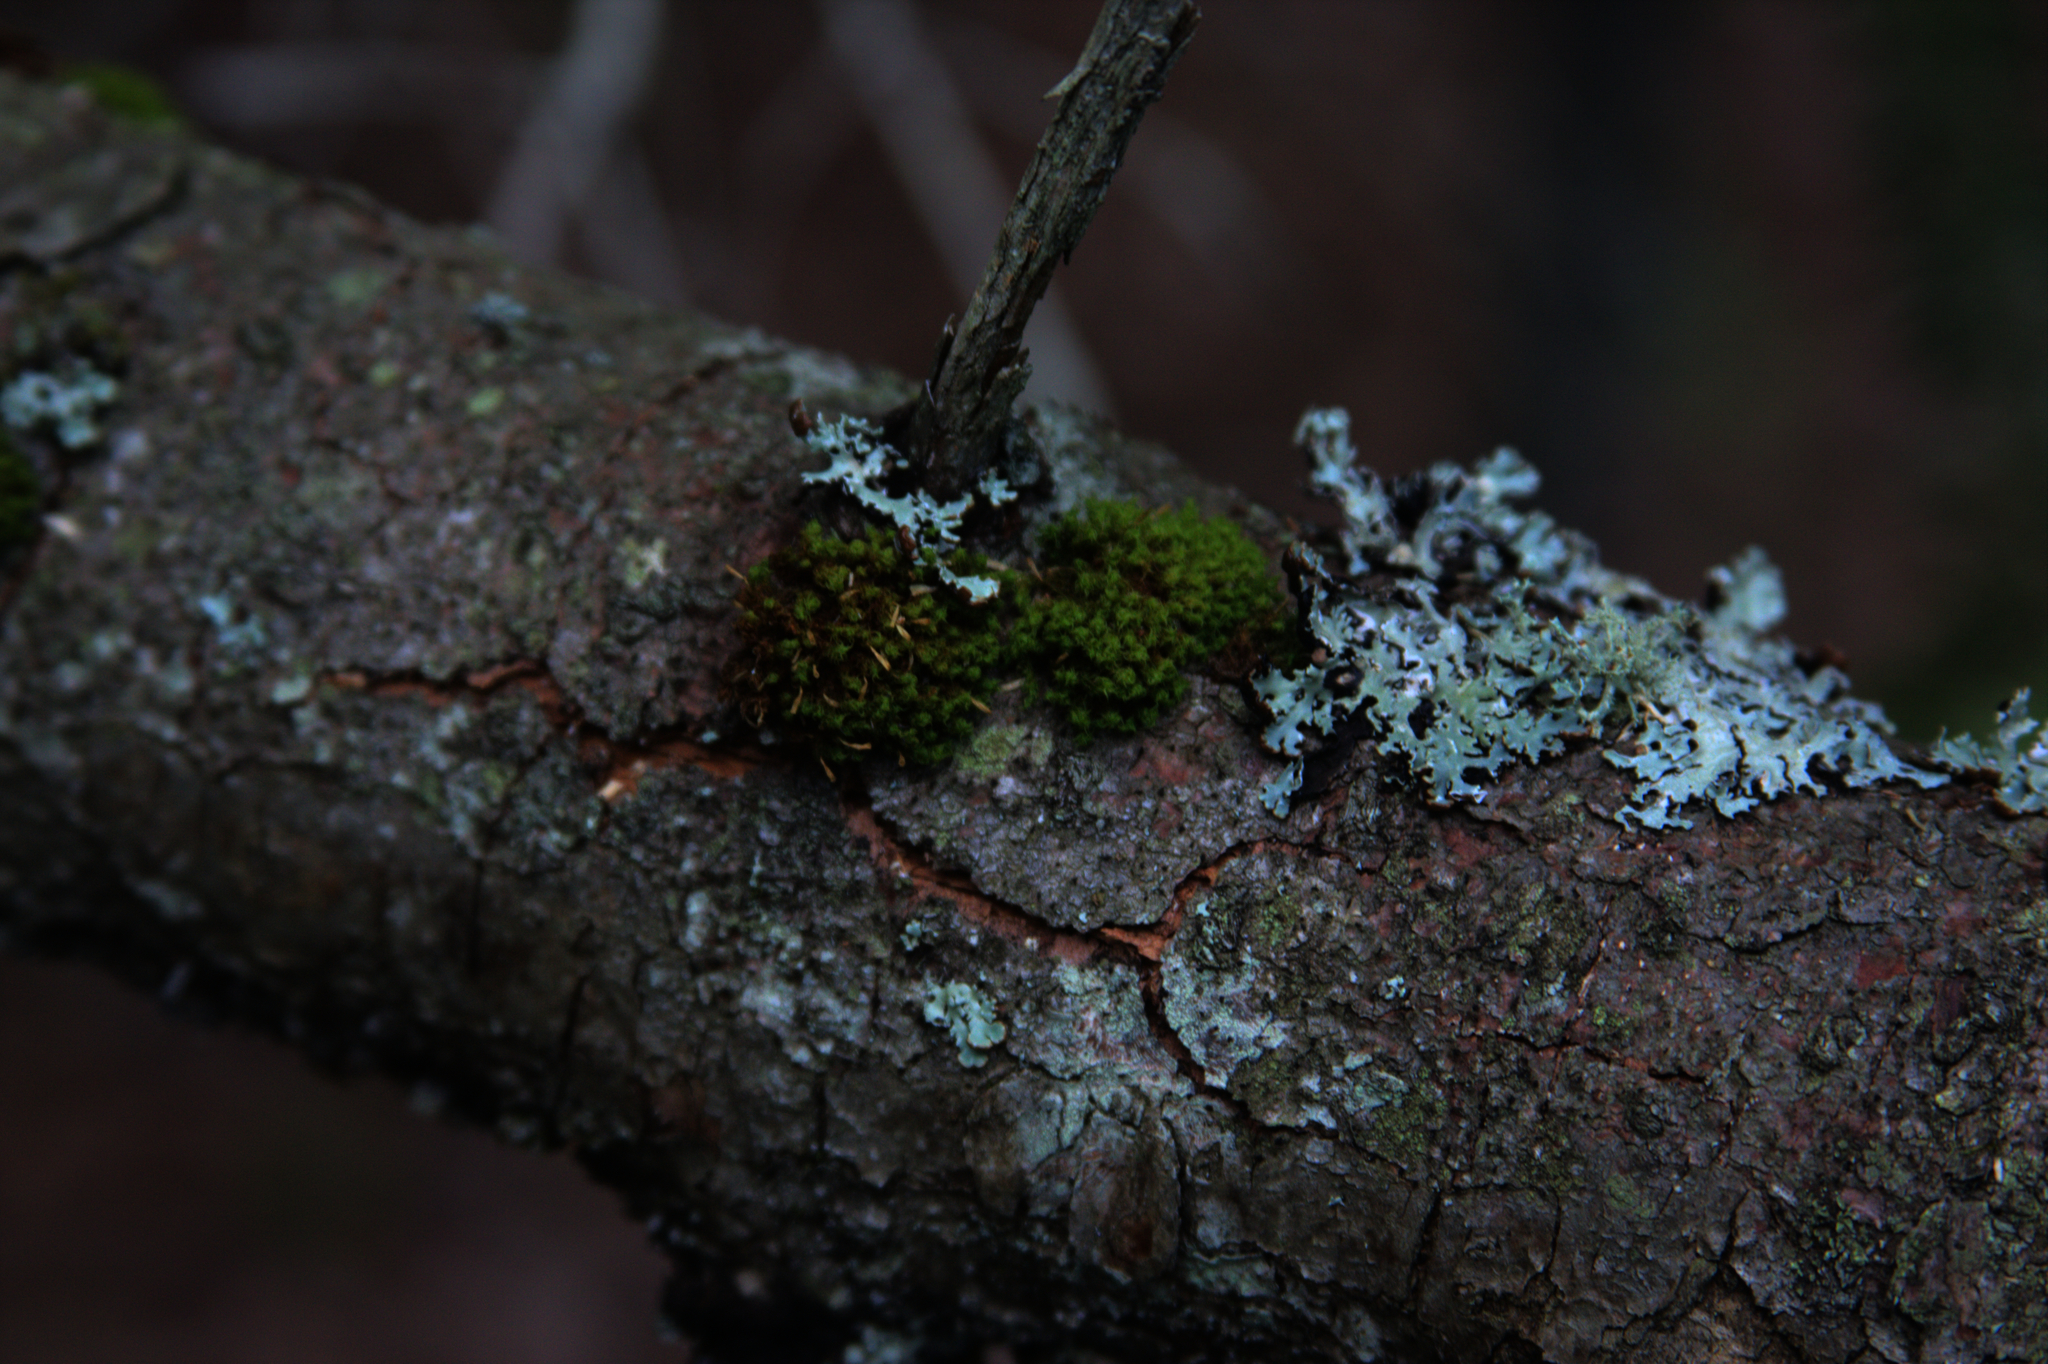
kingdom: Plantae
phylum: Bryophyta
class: Bryopsida
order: Orthotrichales
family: Orthotrichaceae
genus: Ulota
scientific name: Ulota crispa
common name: Crisped pincushion moss
